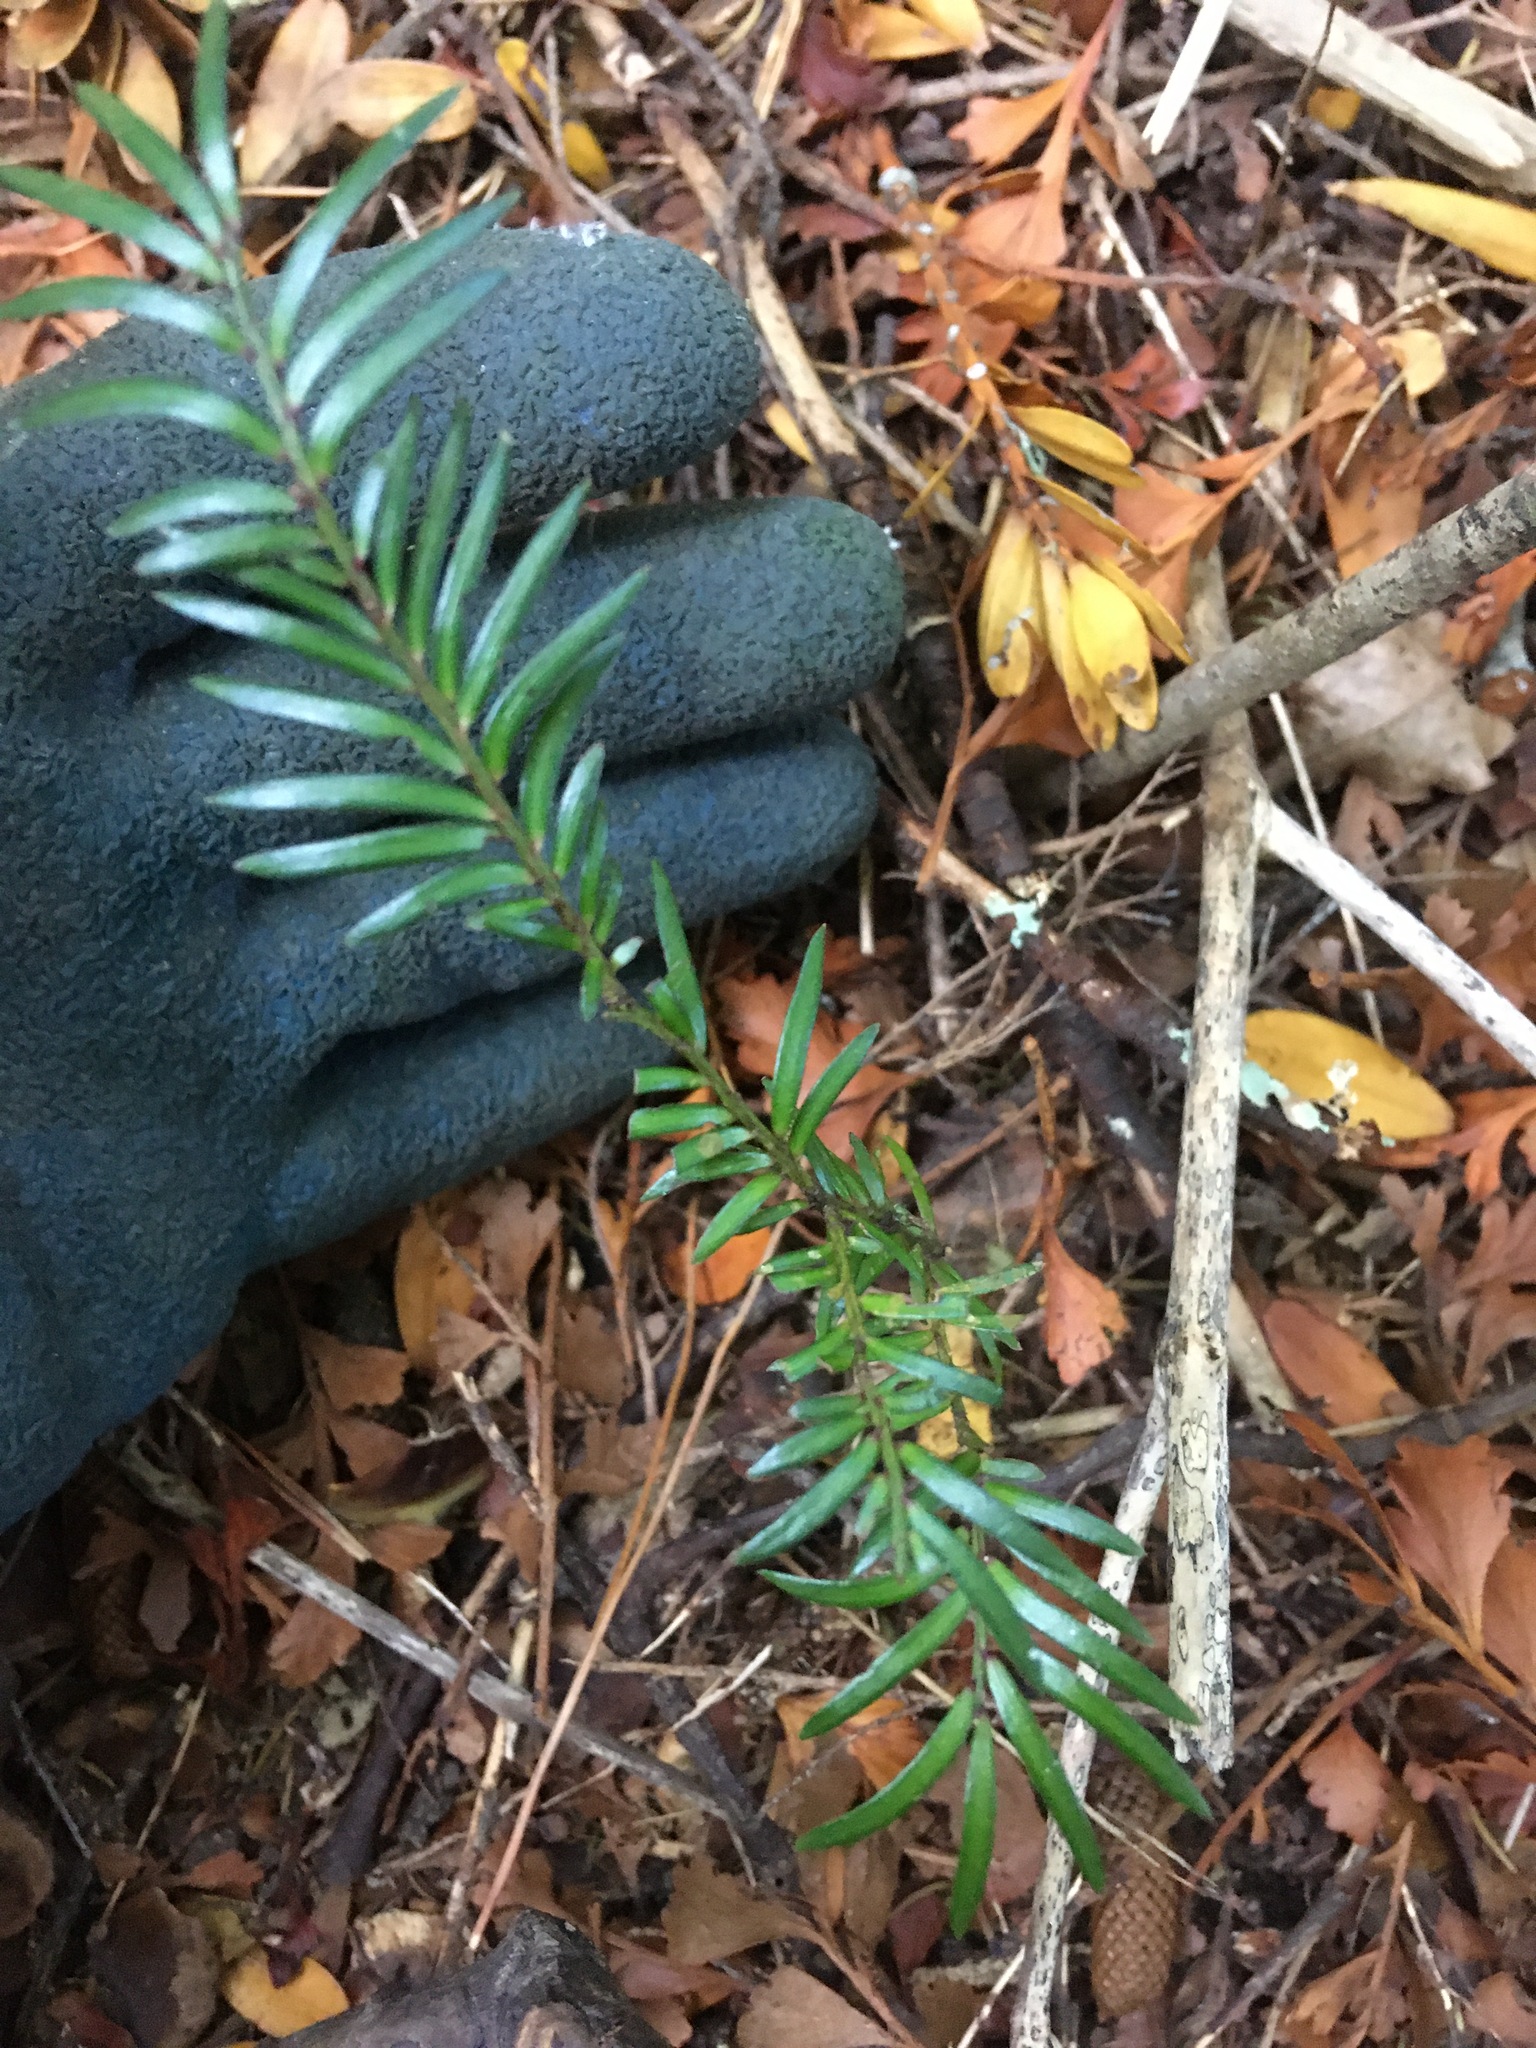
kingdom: Plantae
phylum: Tracheophyta
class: Pinopsida
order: Pinales
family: Podocarpaceae
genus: Prumnopitys
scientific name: Prumnopitys ferruginea
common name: Brown pine
